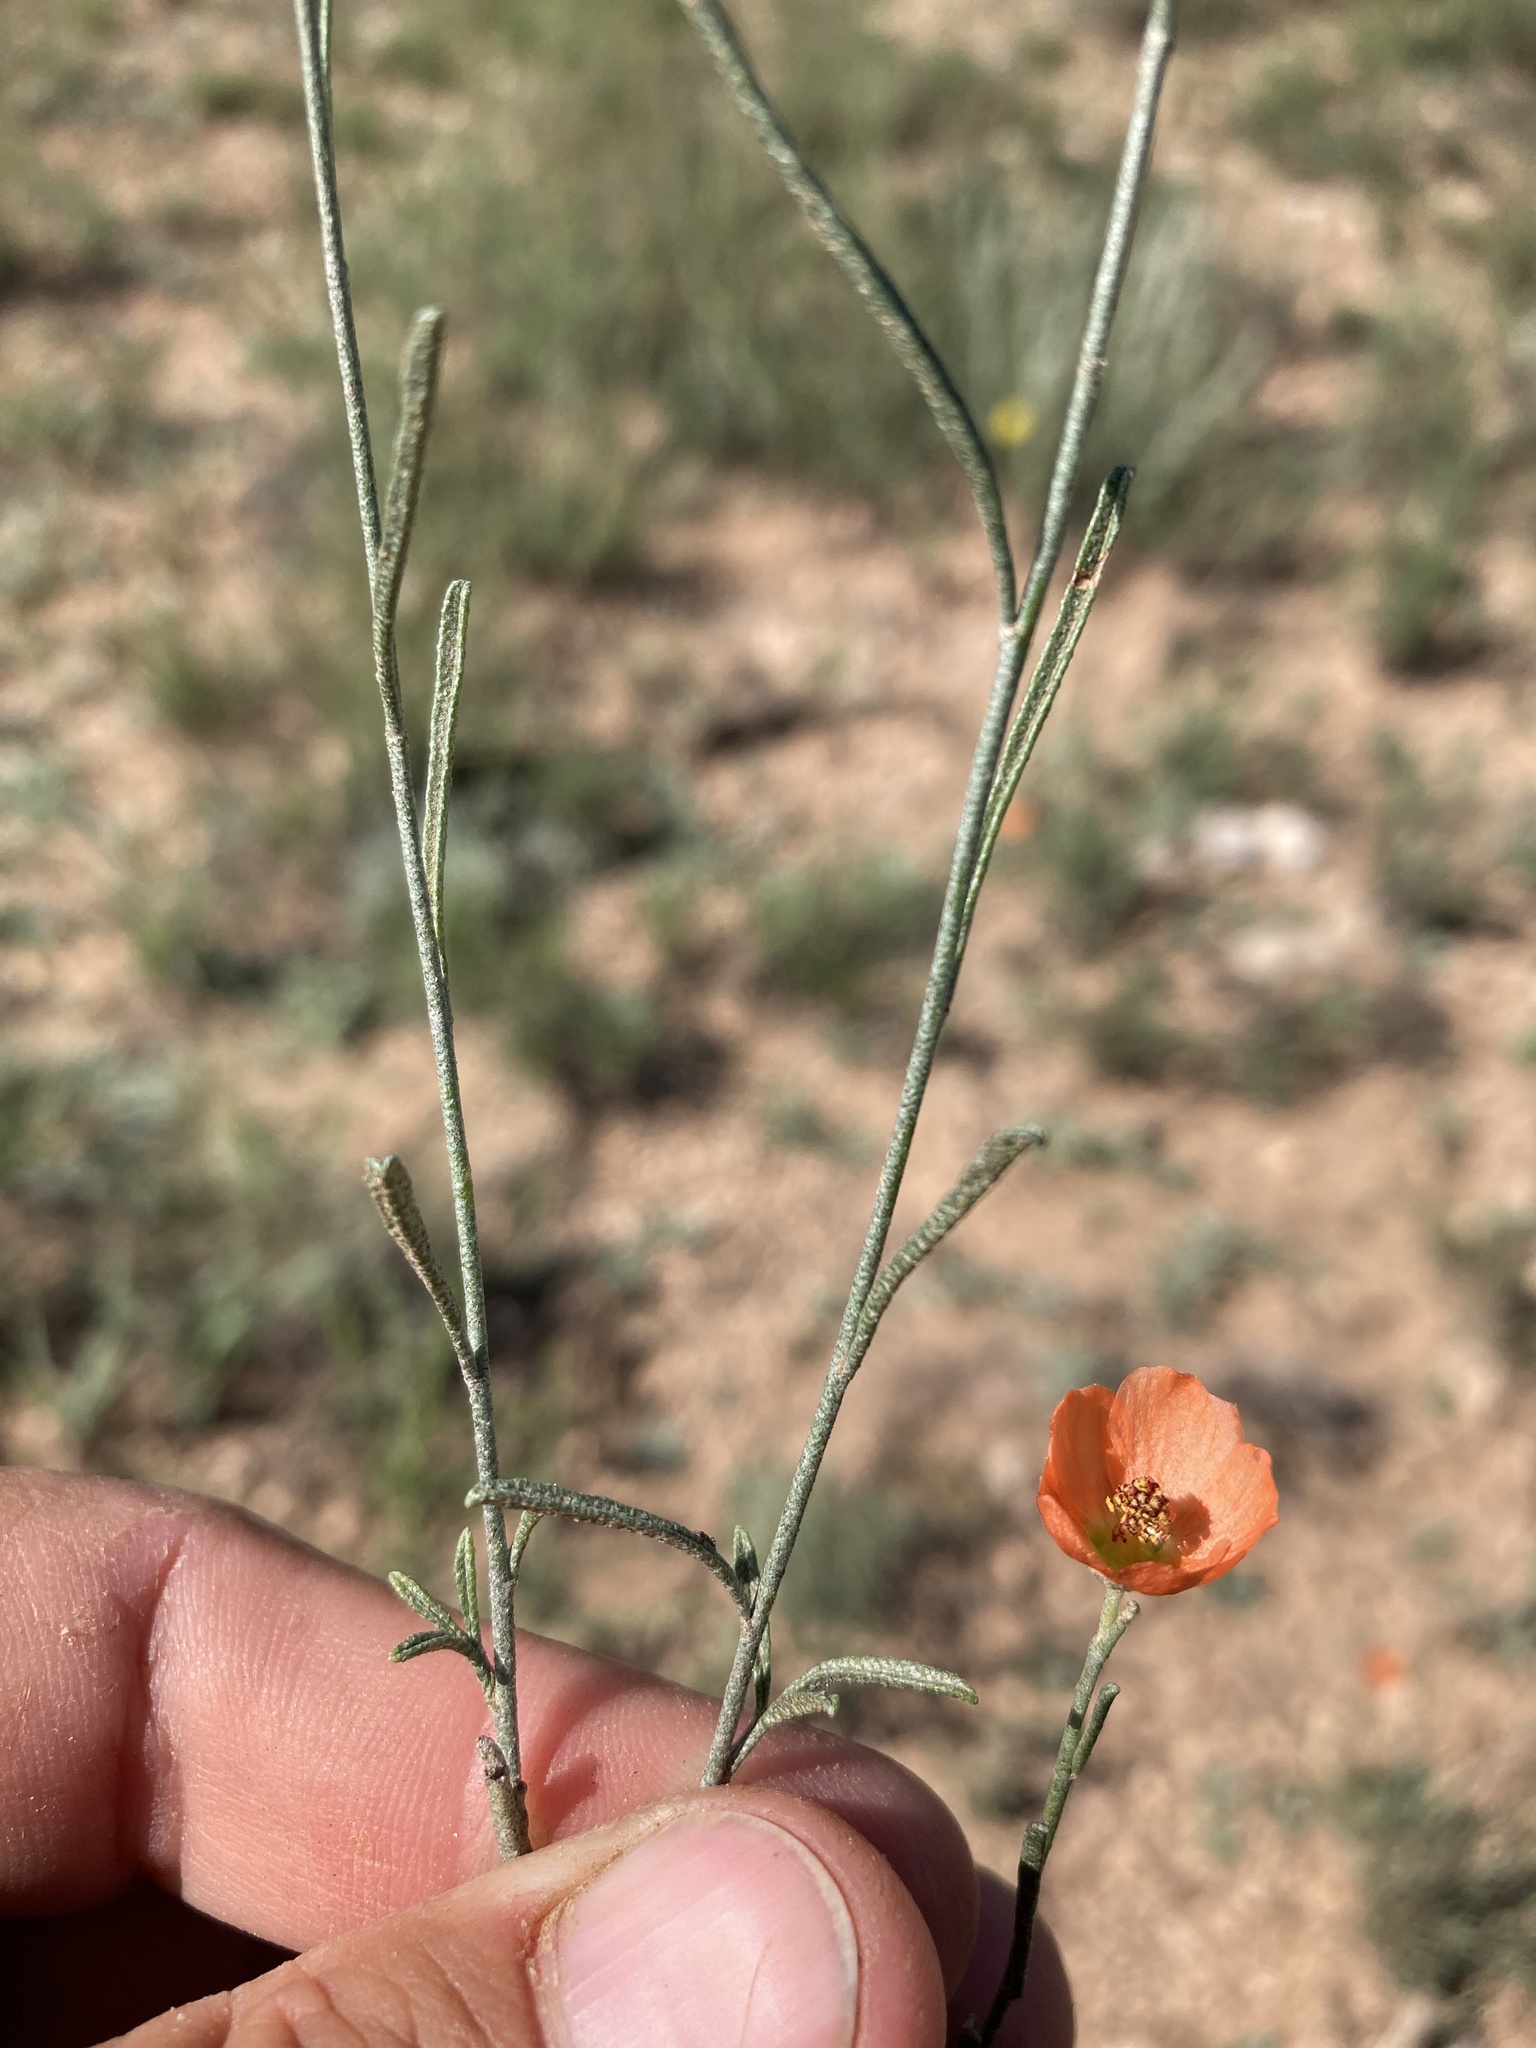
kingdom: Plantae
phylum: Tracheophyta
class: Magnoliopsida
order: Malvales
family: Malvaceae
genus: Sphaeralcea
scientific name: Sphaeralcea leptophylla
